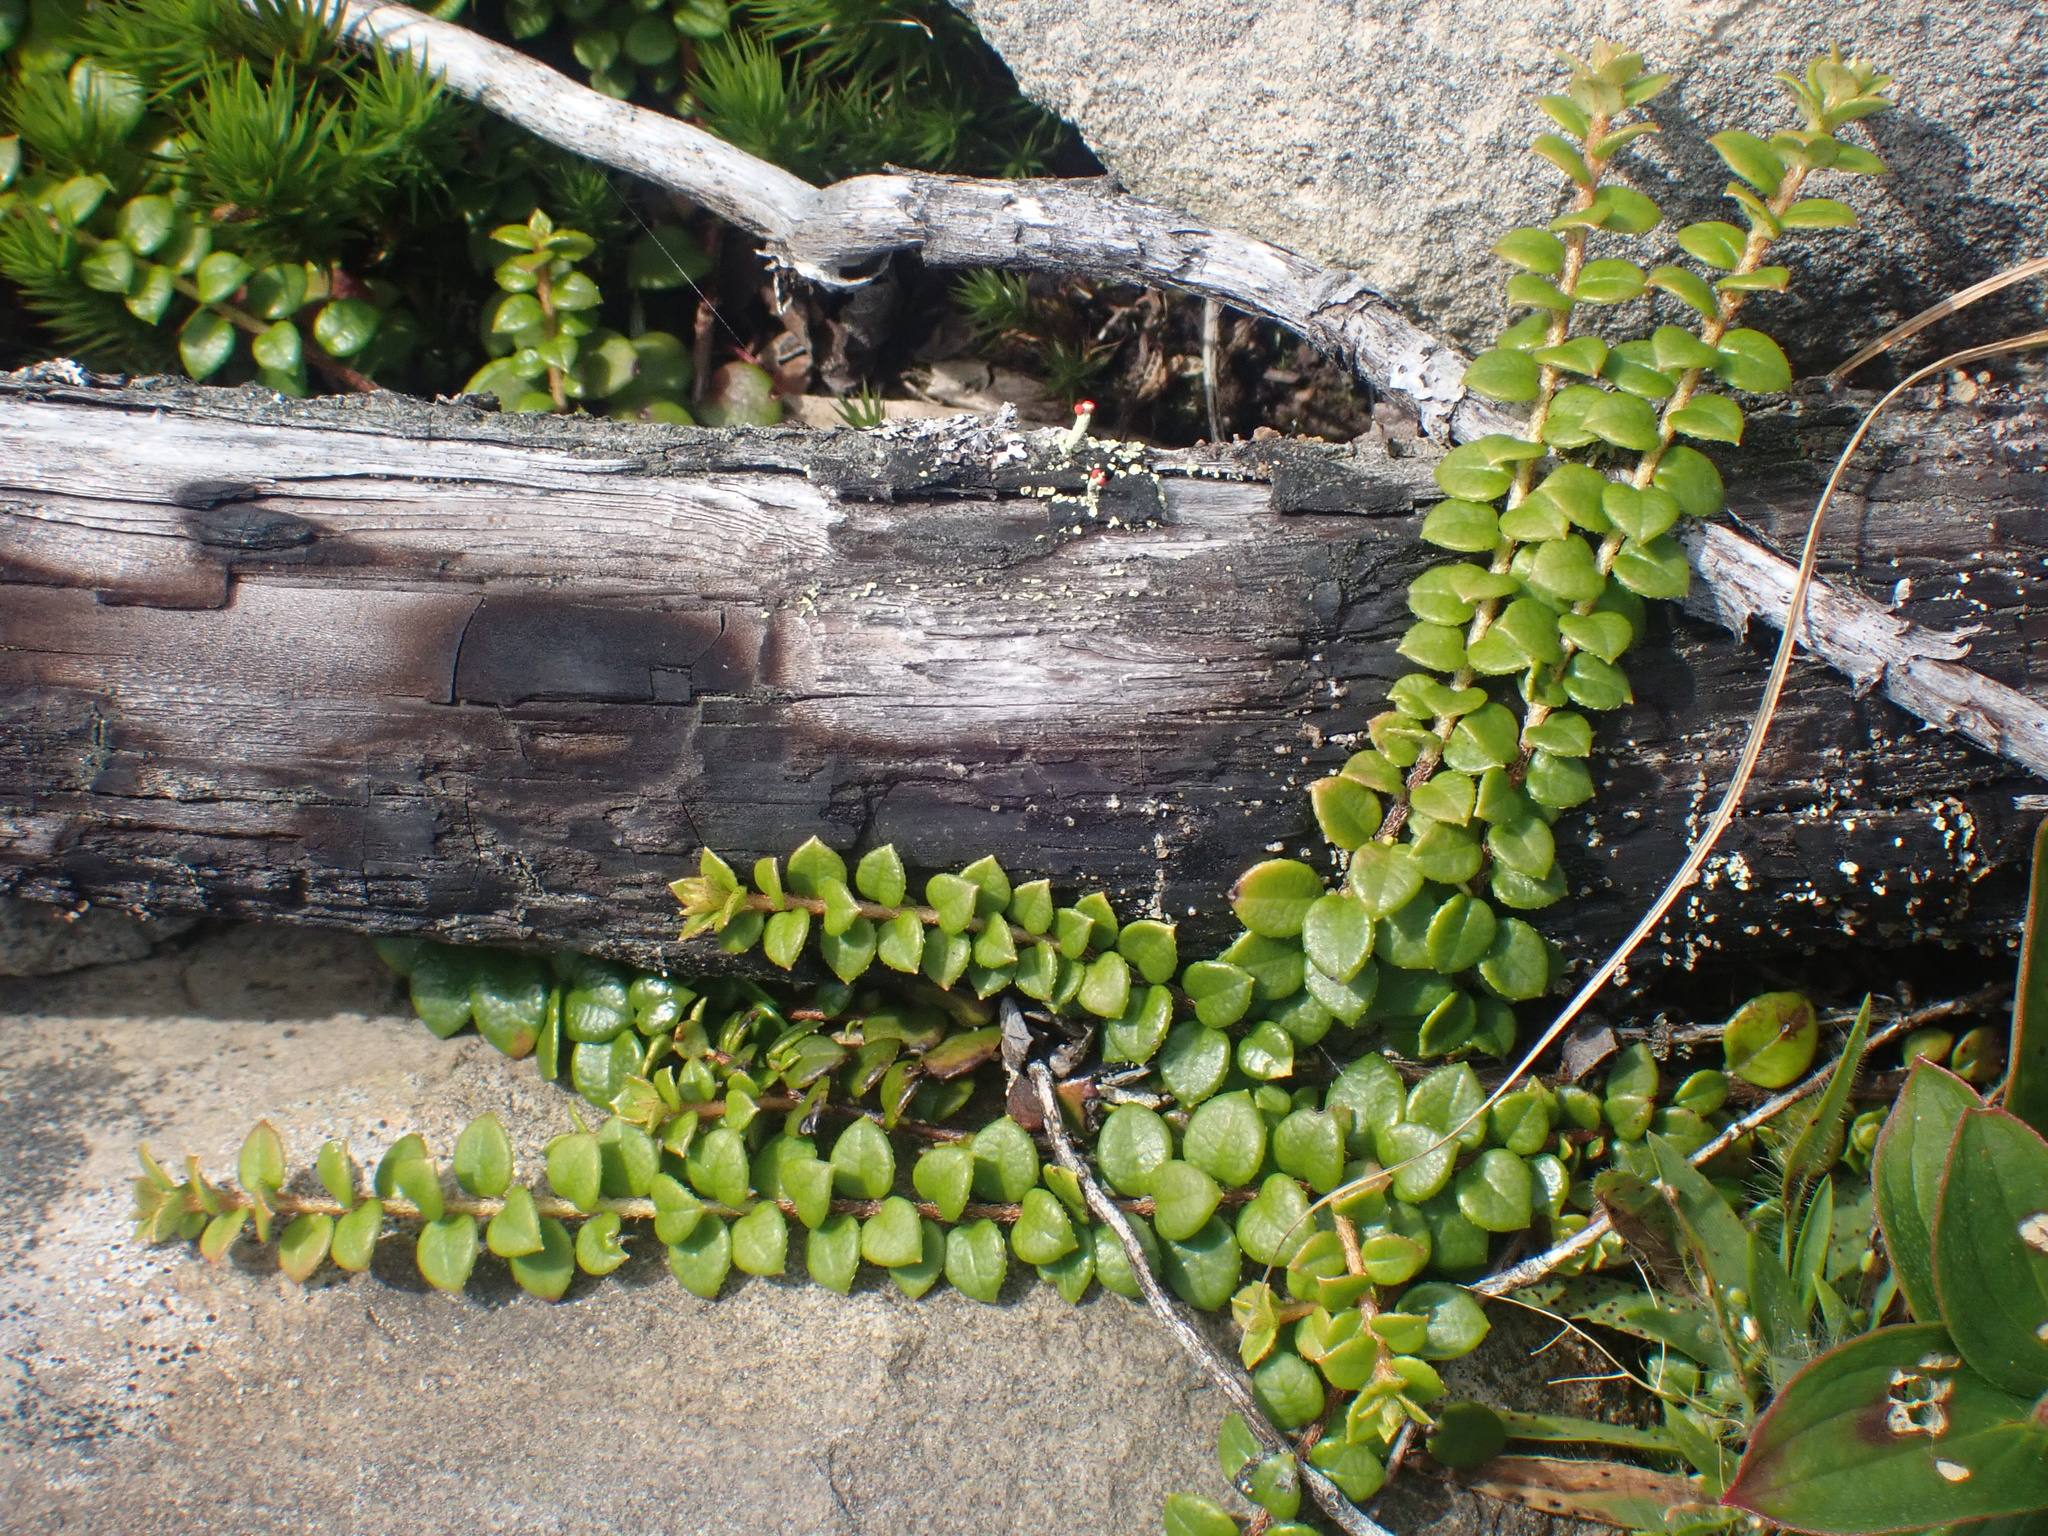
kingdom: Plantae
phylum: Tracheophyta
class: Magnoliopsida
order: Ericales
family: Ericaceae
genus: Gaultheria
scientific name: Gaultheria hispidula
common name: Cancer wintergreen
